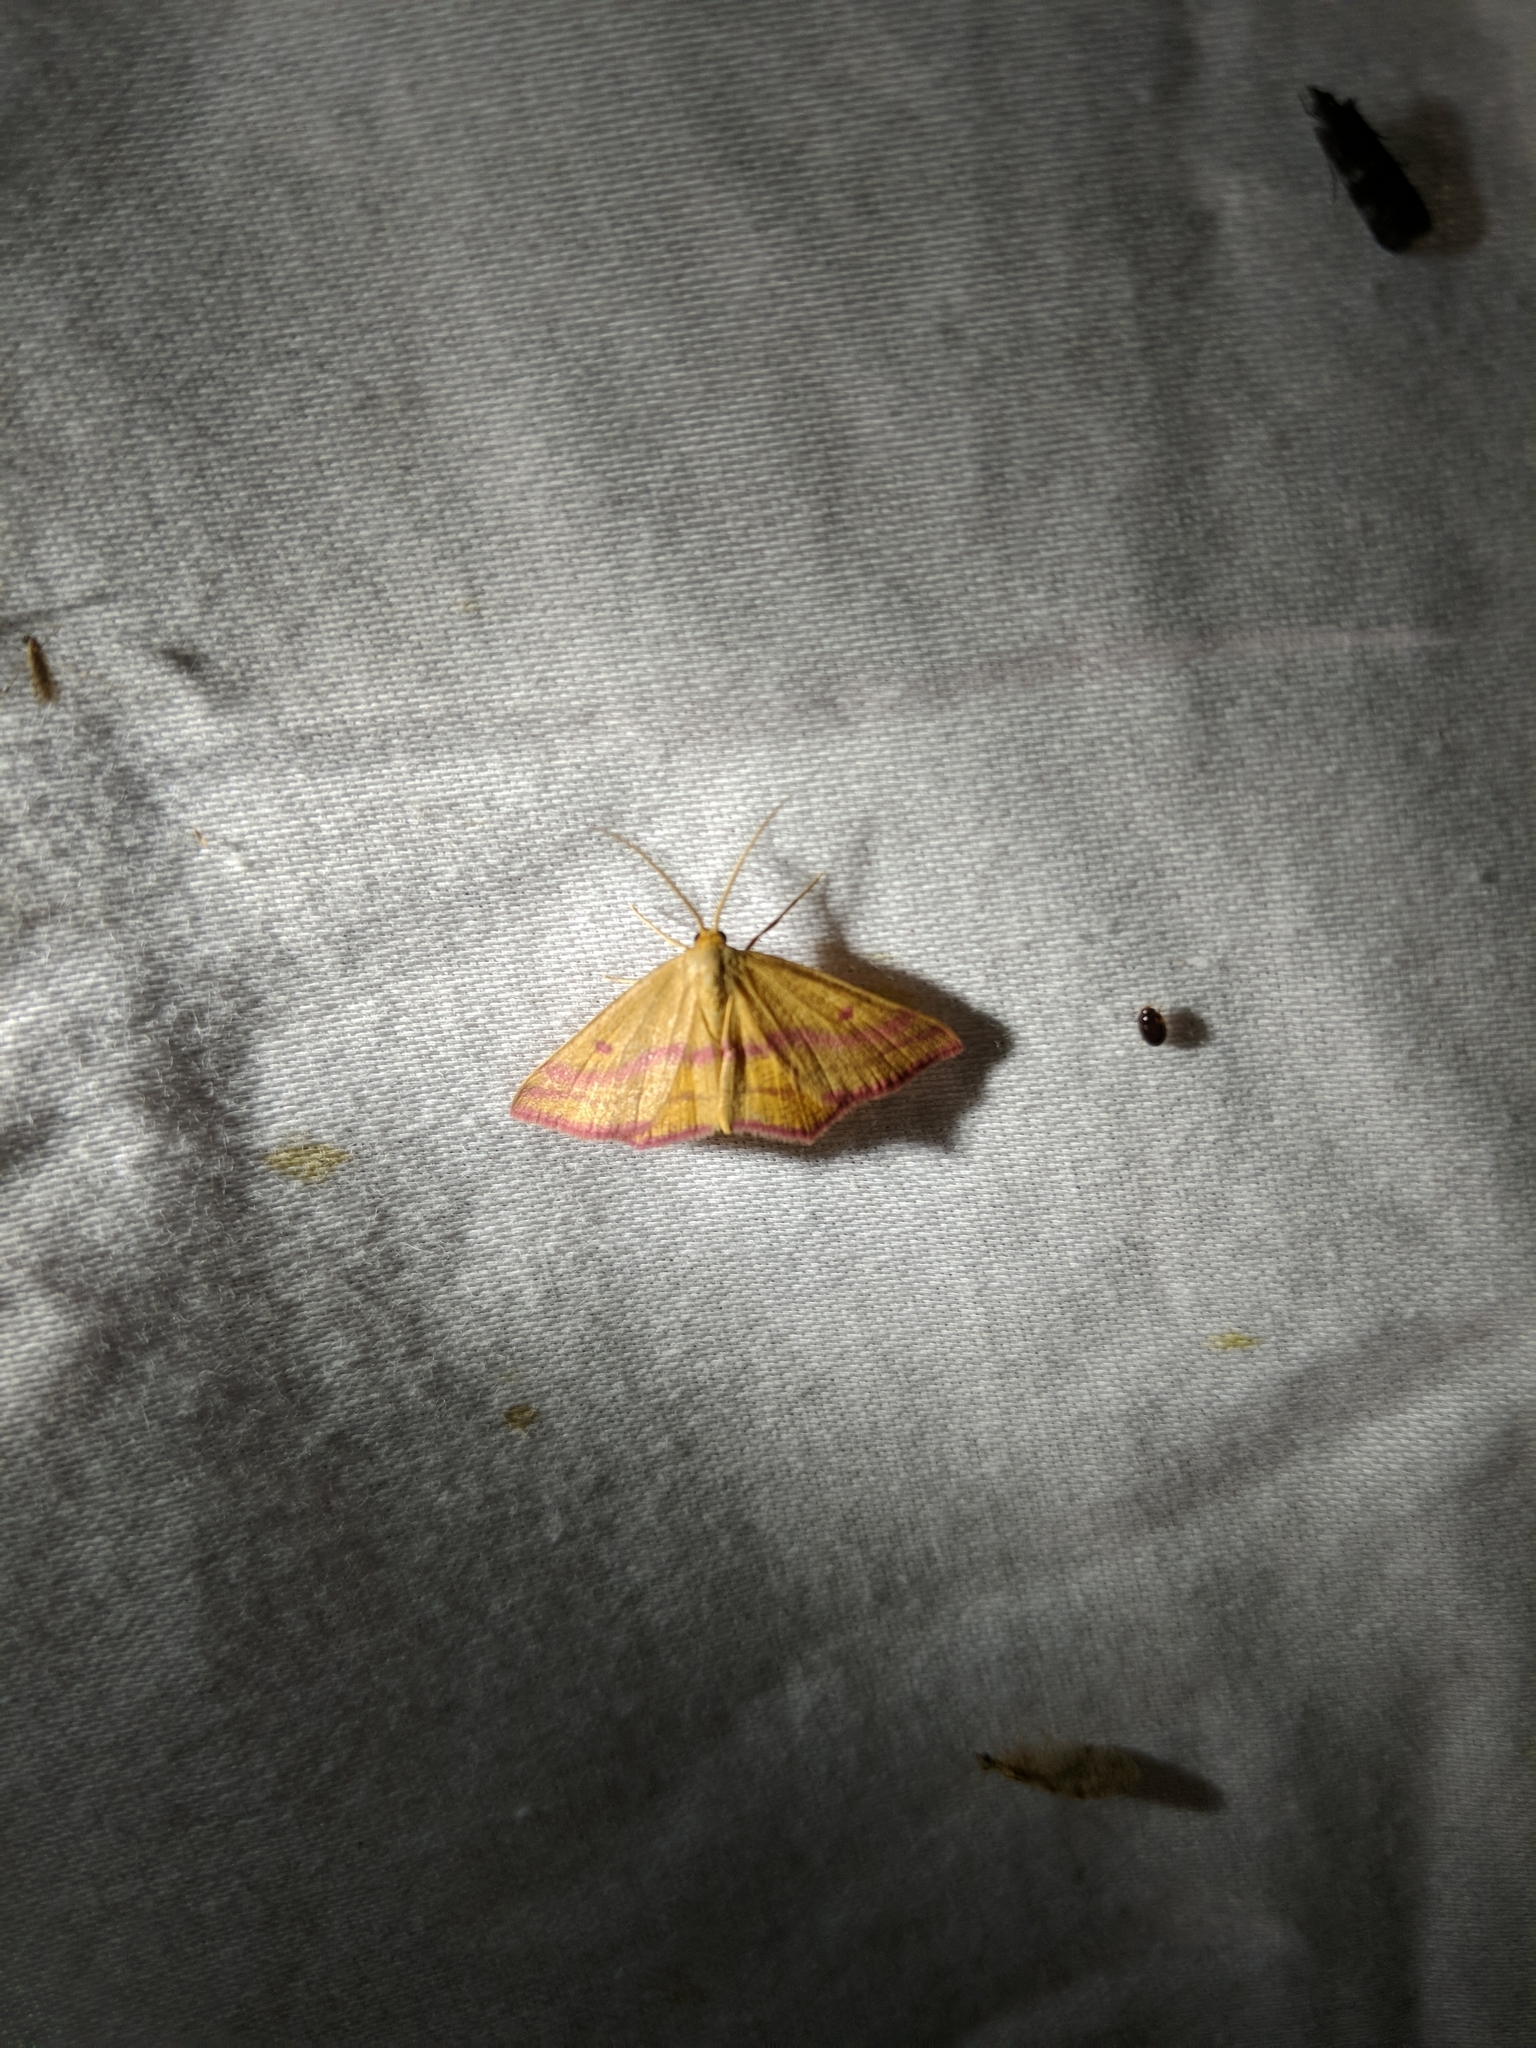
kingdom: Animalia
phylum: Arthropoda
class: Insecta
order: Lepidoptera
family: Geometridae
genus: Haematopis
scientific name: Haematopis grataria
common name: Chickweed geometer
